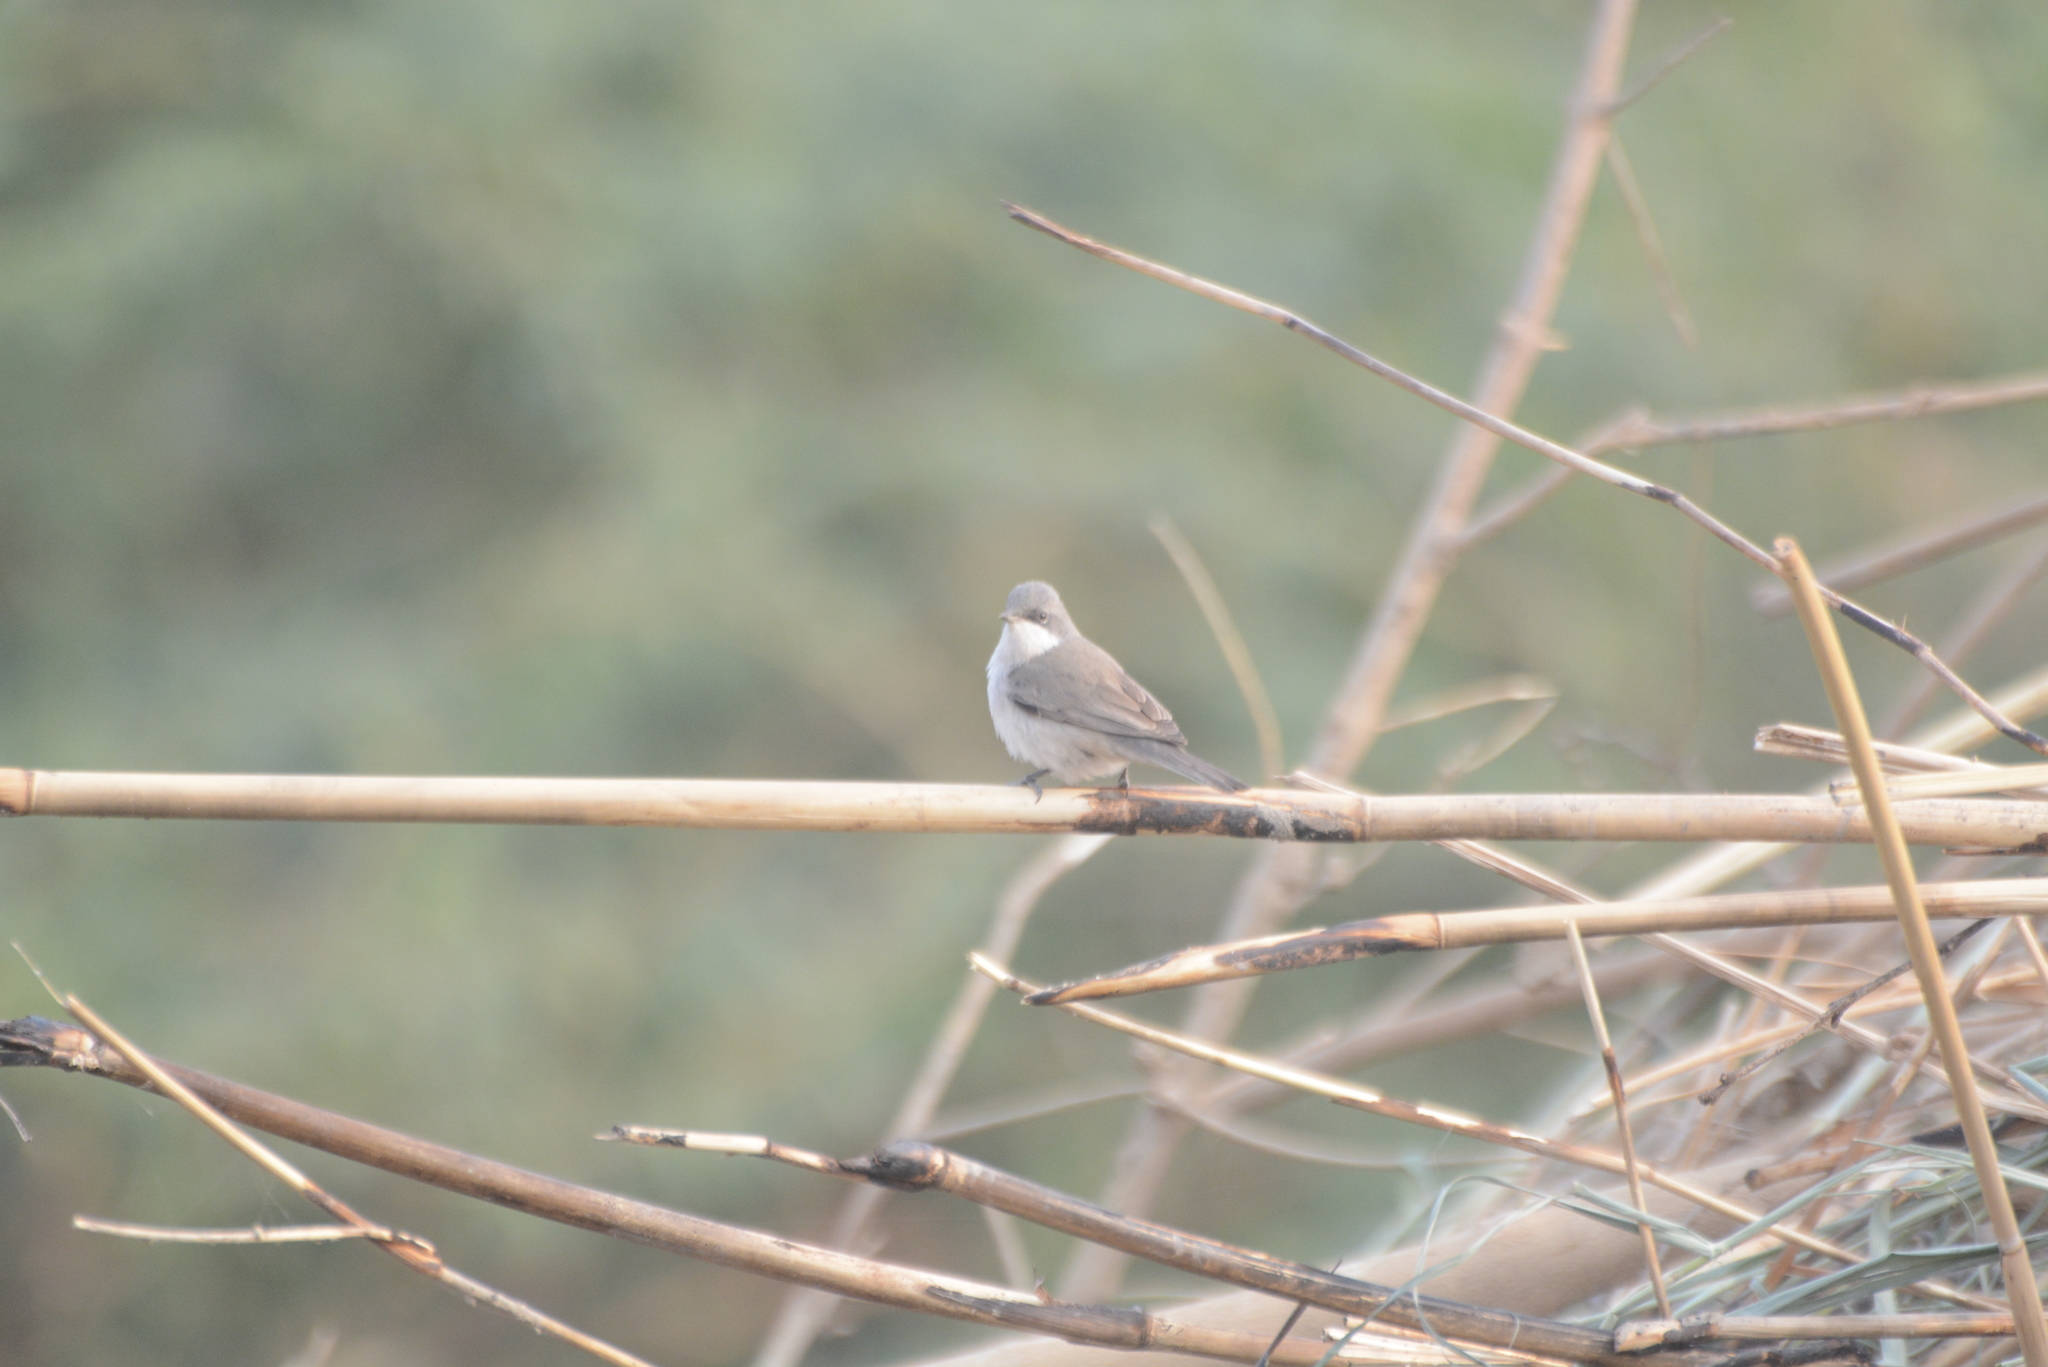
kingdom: Animalia
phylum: Chordata
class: Aves
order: Passeriformes
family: Sylviidae
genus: Sylvia
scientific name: Sylvia curruca
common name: Lesser whitethroat
